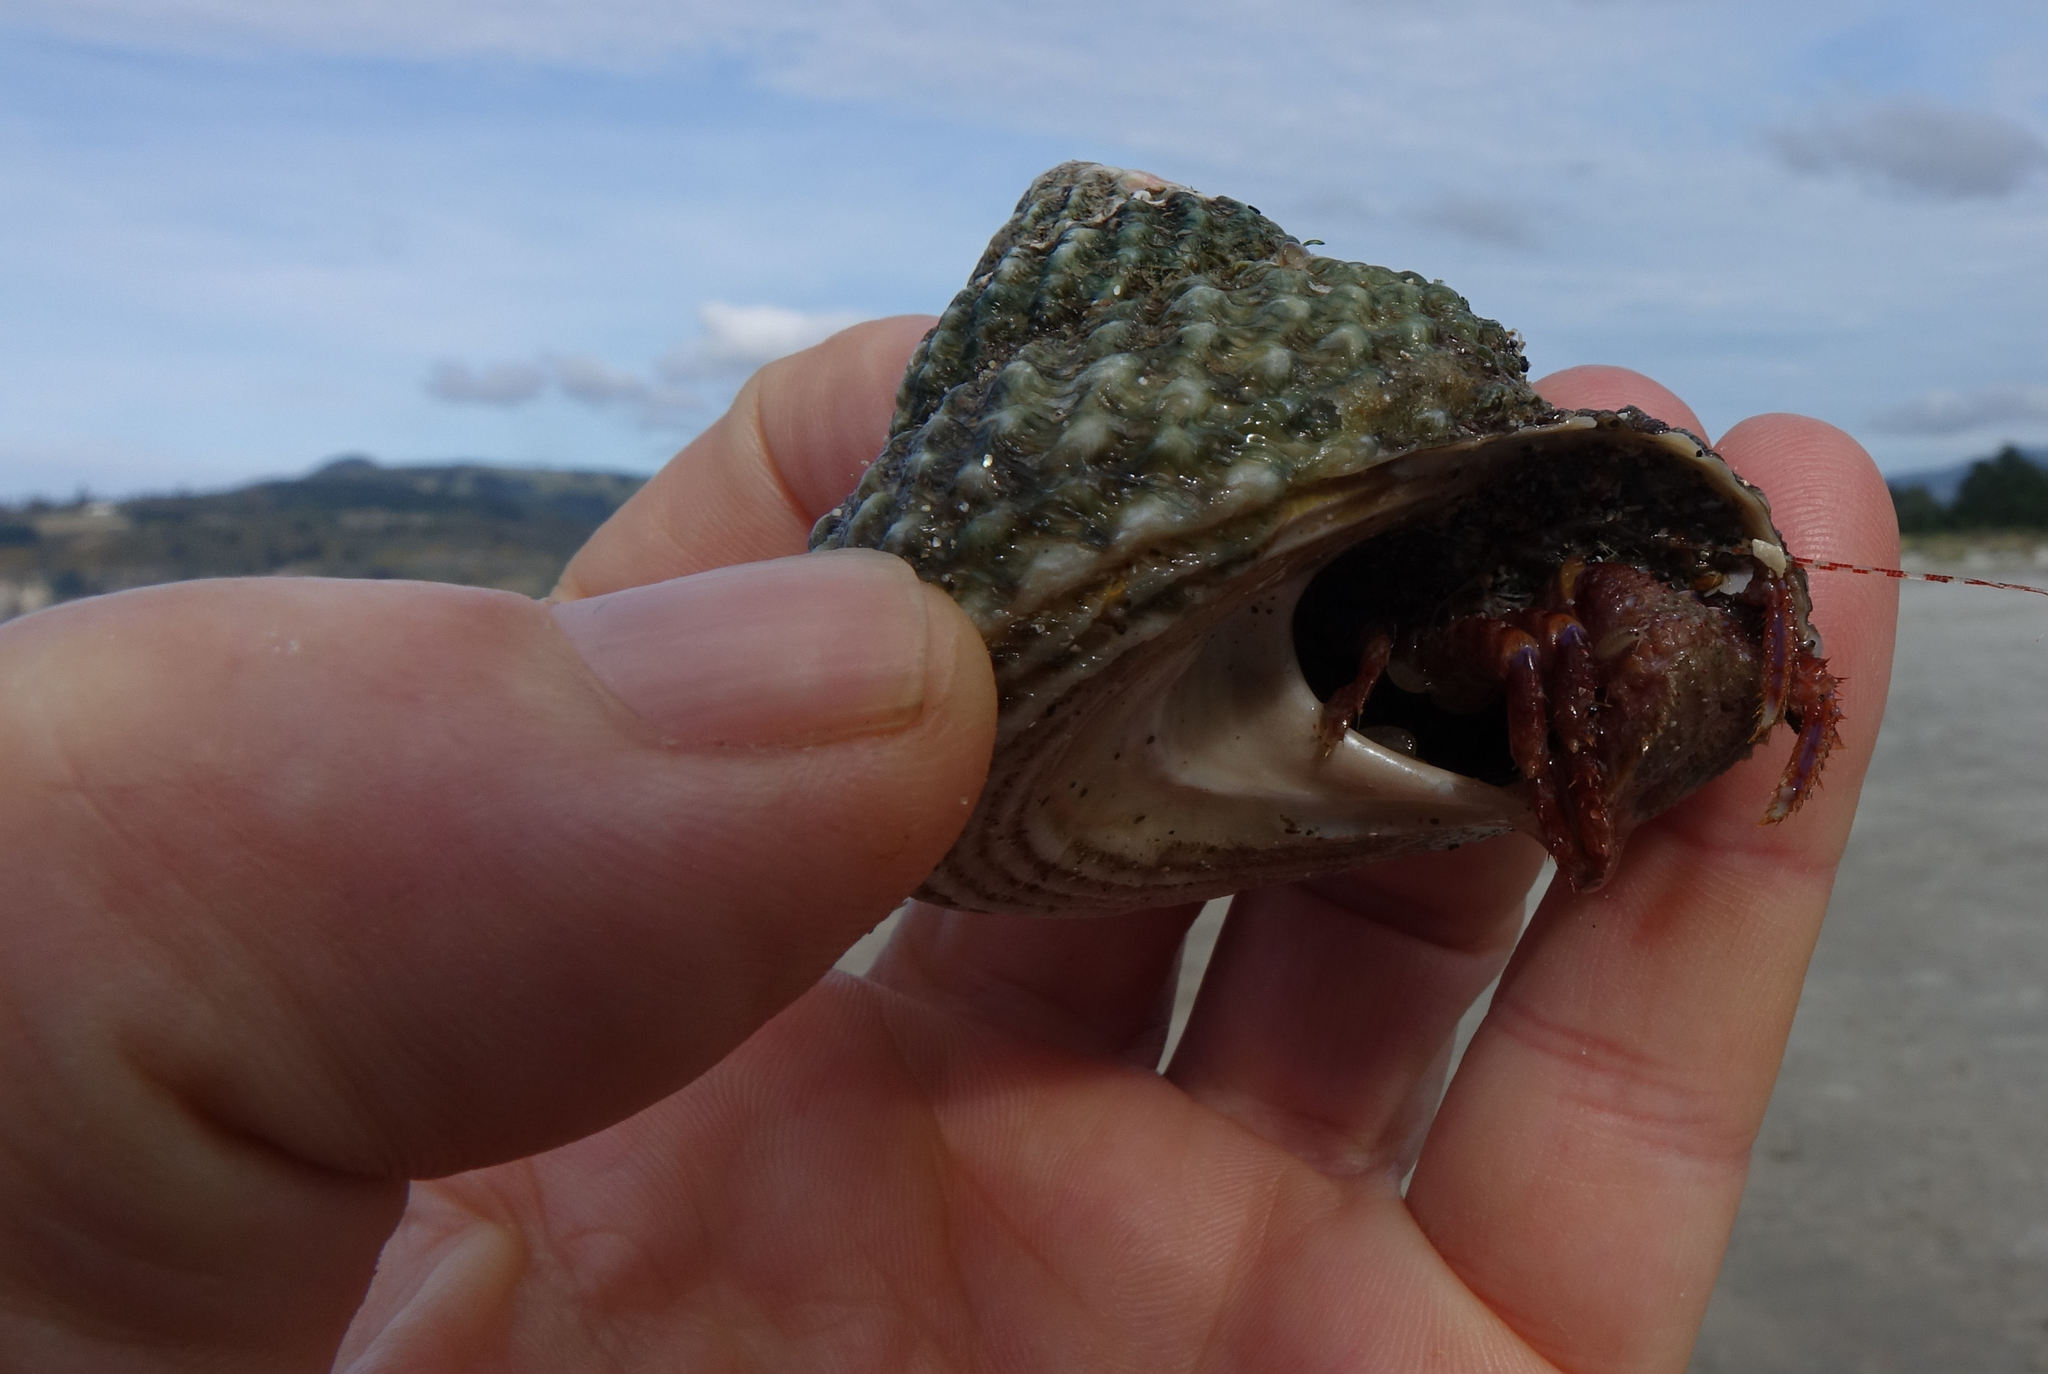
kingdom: Animalia
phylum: Arthropoda
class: Malacostraca
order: Decapoda
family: Paguridae
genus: Diacanthurus
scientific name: Diacanthurus spinulimanus
